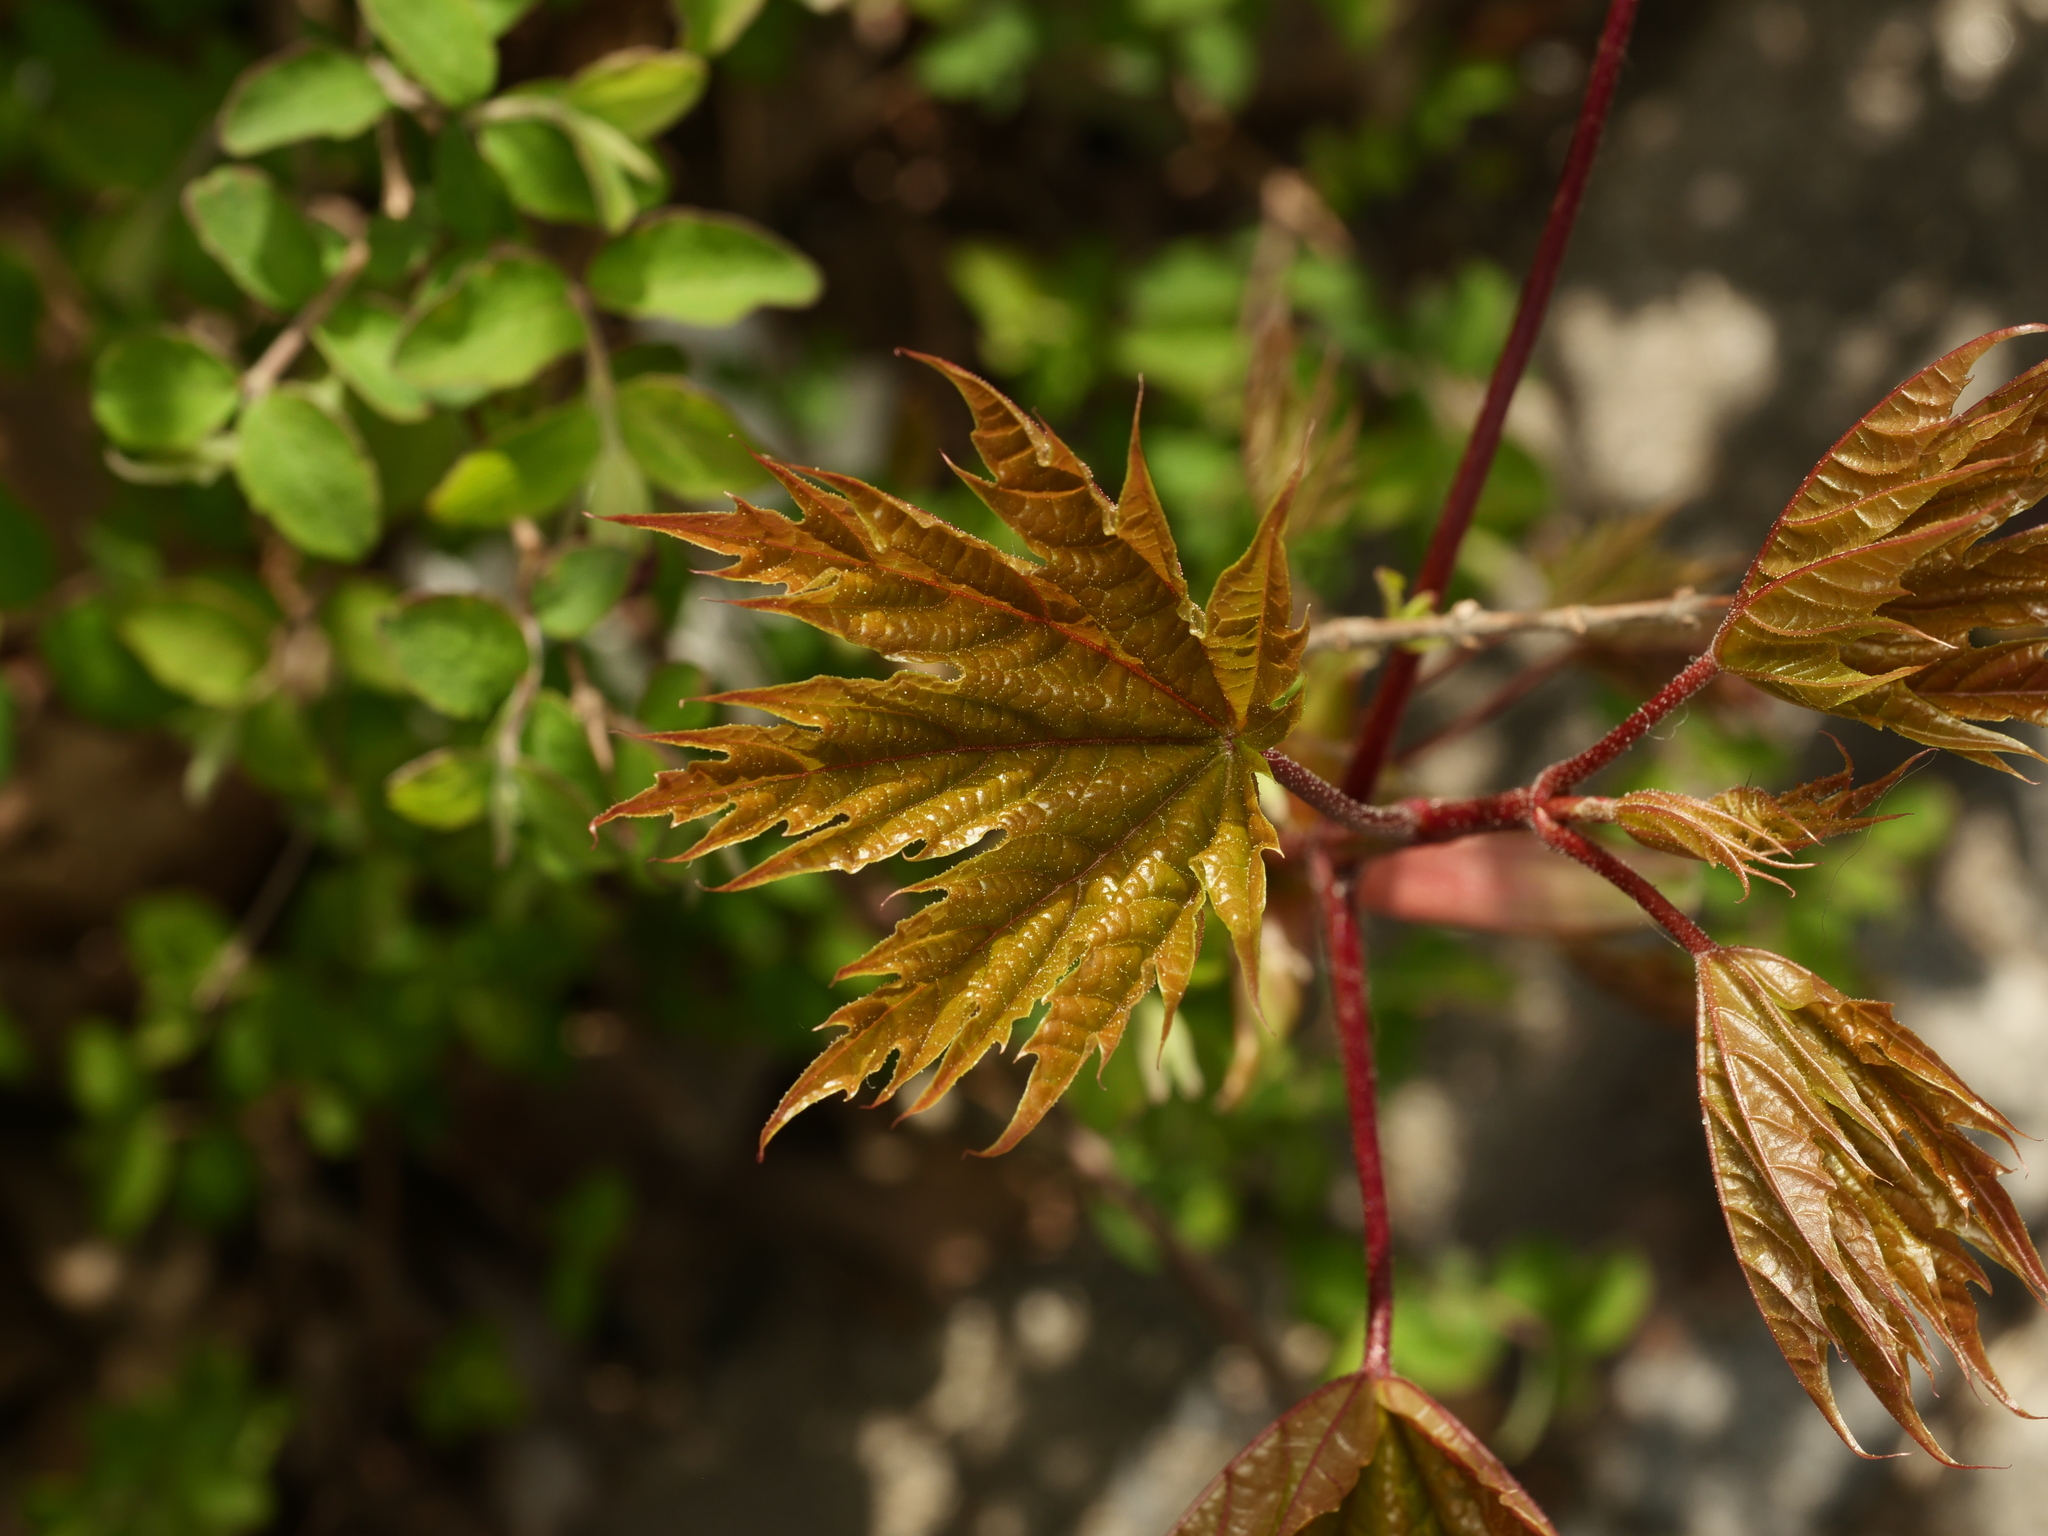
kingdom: Plantae
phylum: Tracheophyta
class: Magnoliopsida
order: Sapindales
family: Sapindaceae
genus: Acer
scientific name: Acer platanoides
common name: Norway maple
